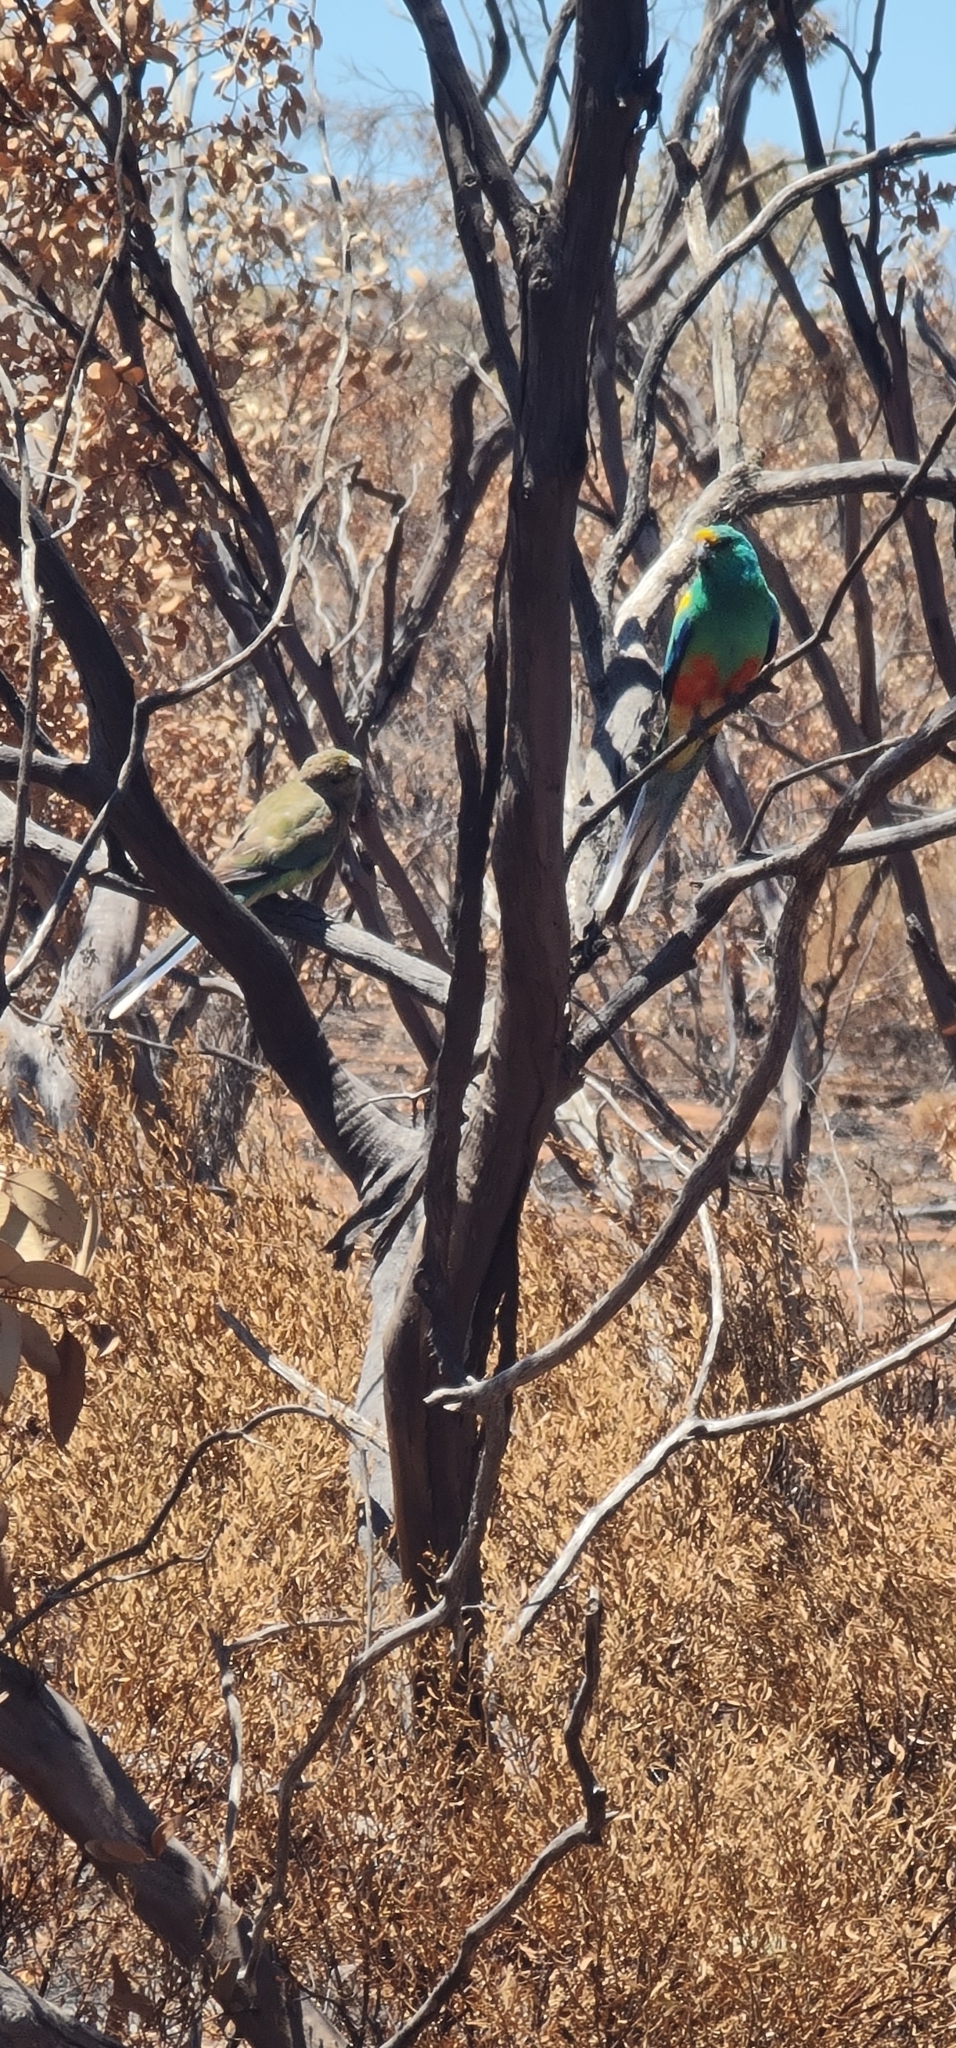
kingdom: Animalia
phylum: Chordata
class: Aves
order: Psittaciformes
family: Psittaculidae
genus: Psephotellus
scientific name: Psephotellus varius
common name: Mulga parrot
